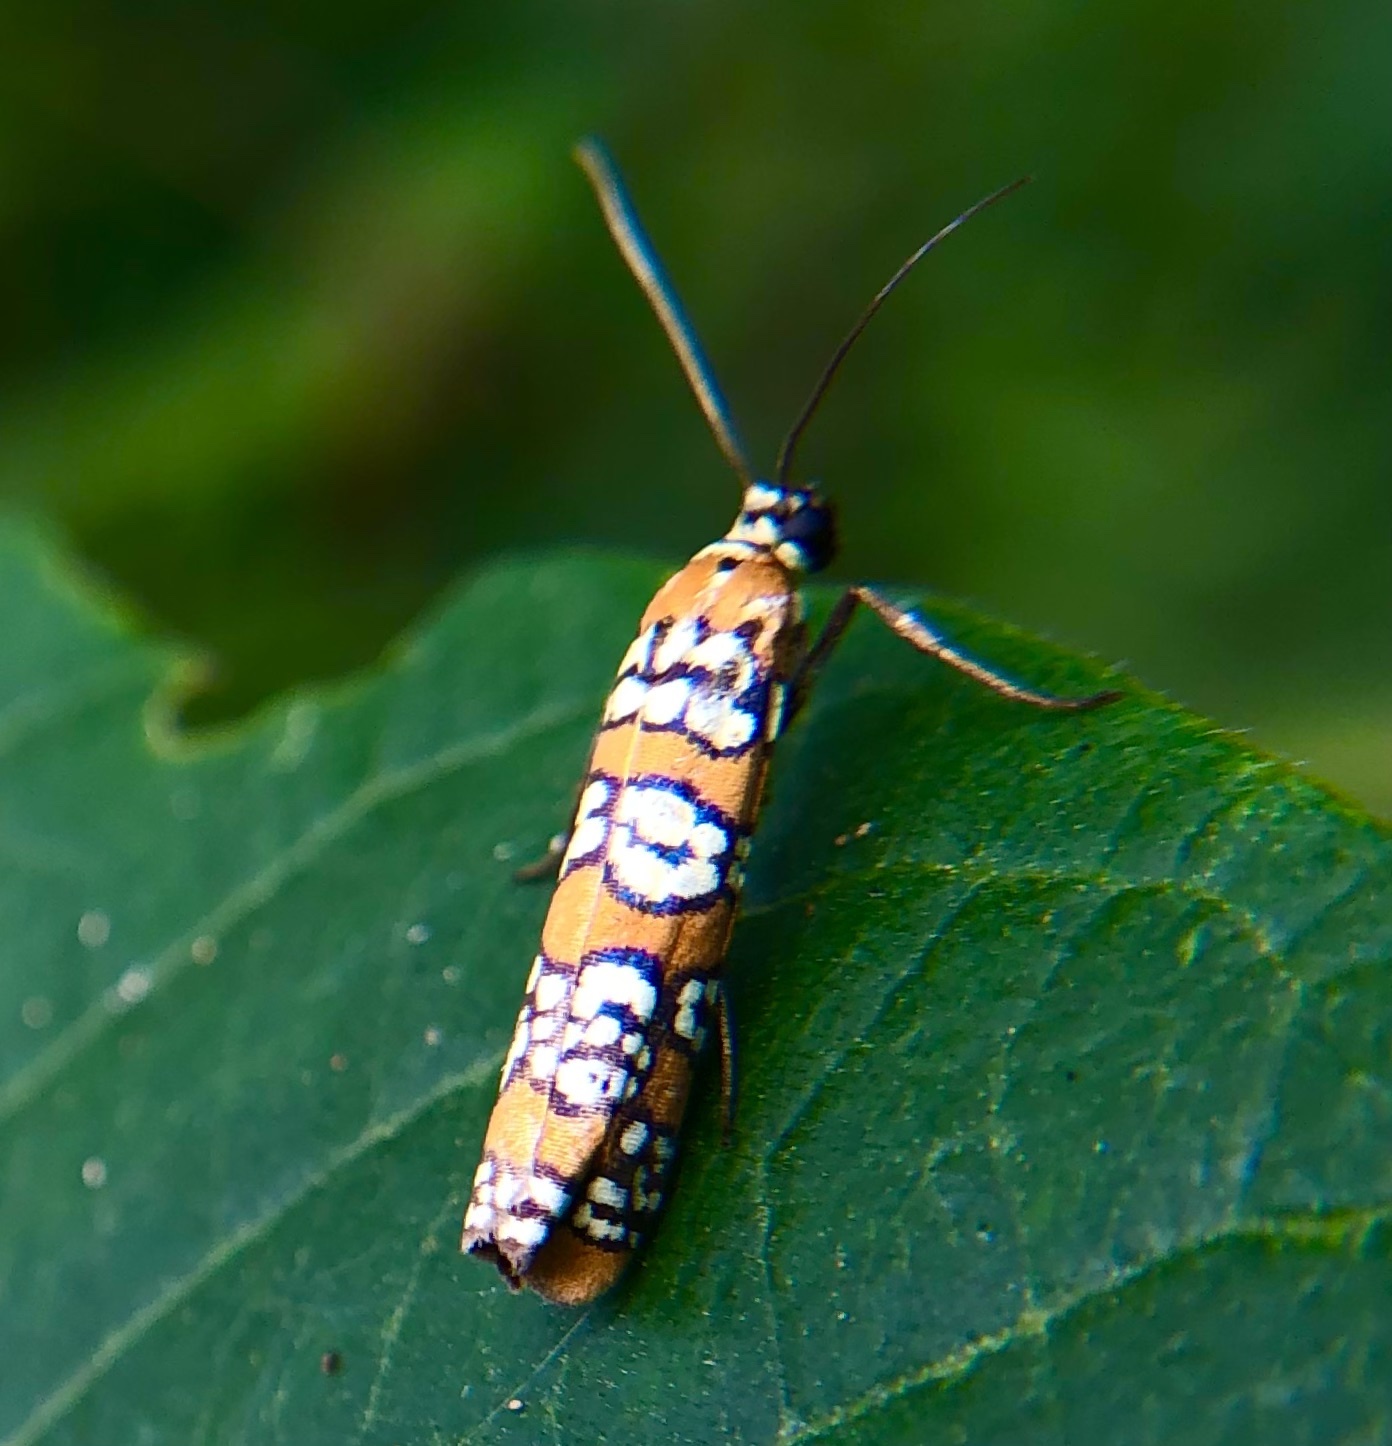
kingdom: Animalia
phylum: Arthropoda
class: Insecta
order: Lepidoptera
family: Attevidae
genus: Atteva
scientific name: Atteva punctella
